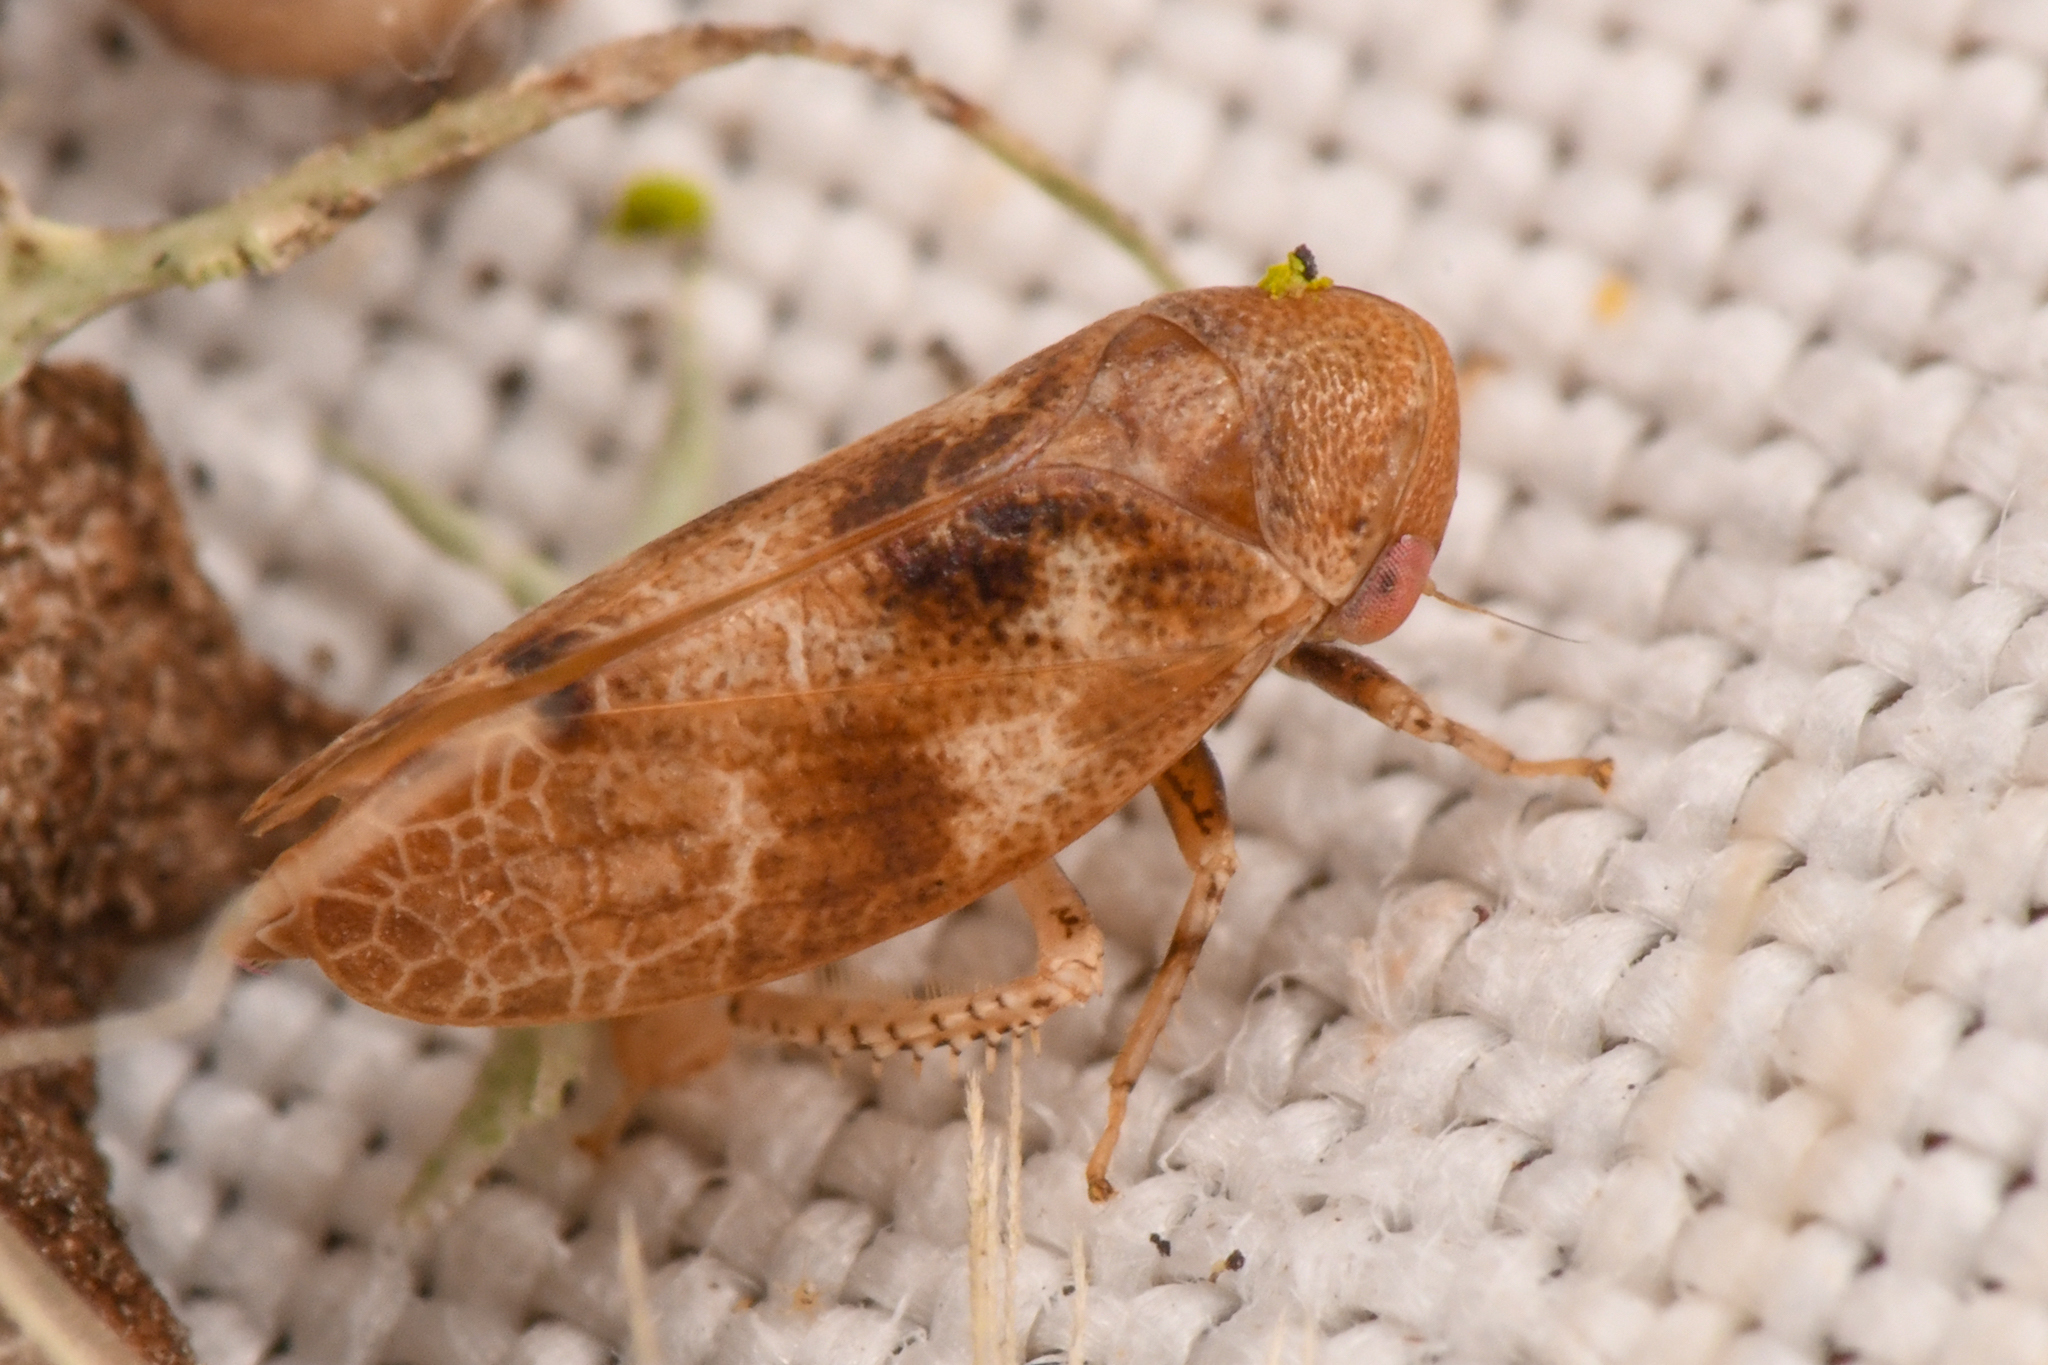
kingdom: Animalia
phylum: Arthropoda
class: Insecta
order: Hemiptera
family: Cicadellidae
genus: Reticopsis
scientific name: Reticopsis udrobates
